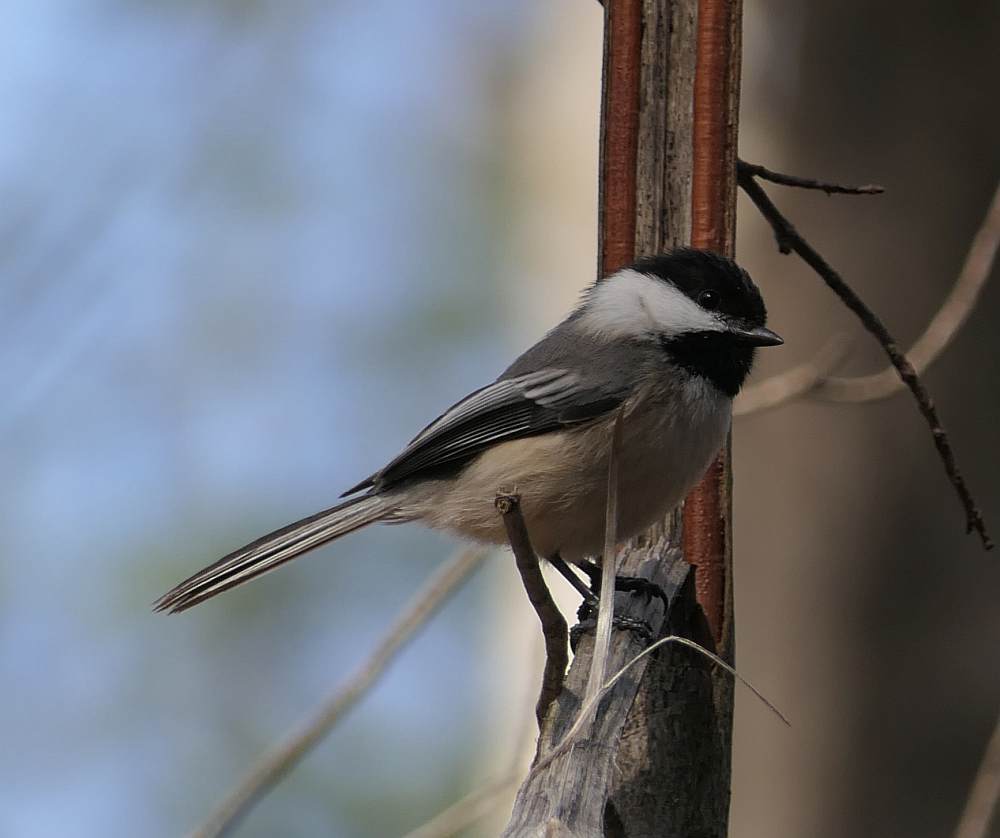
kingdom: Animalia
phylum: Chordata
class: Aves
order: Passeriformes
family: Paridae
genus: Poecile
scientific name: Poecile atricapillus
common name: Black-capped chickadee
